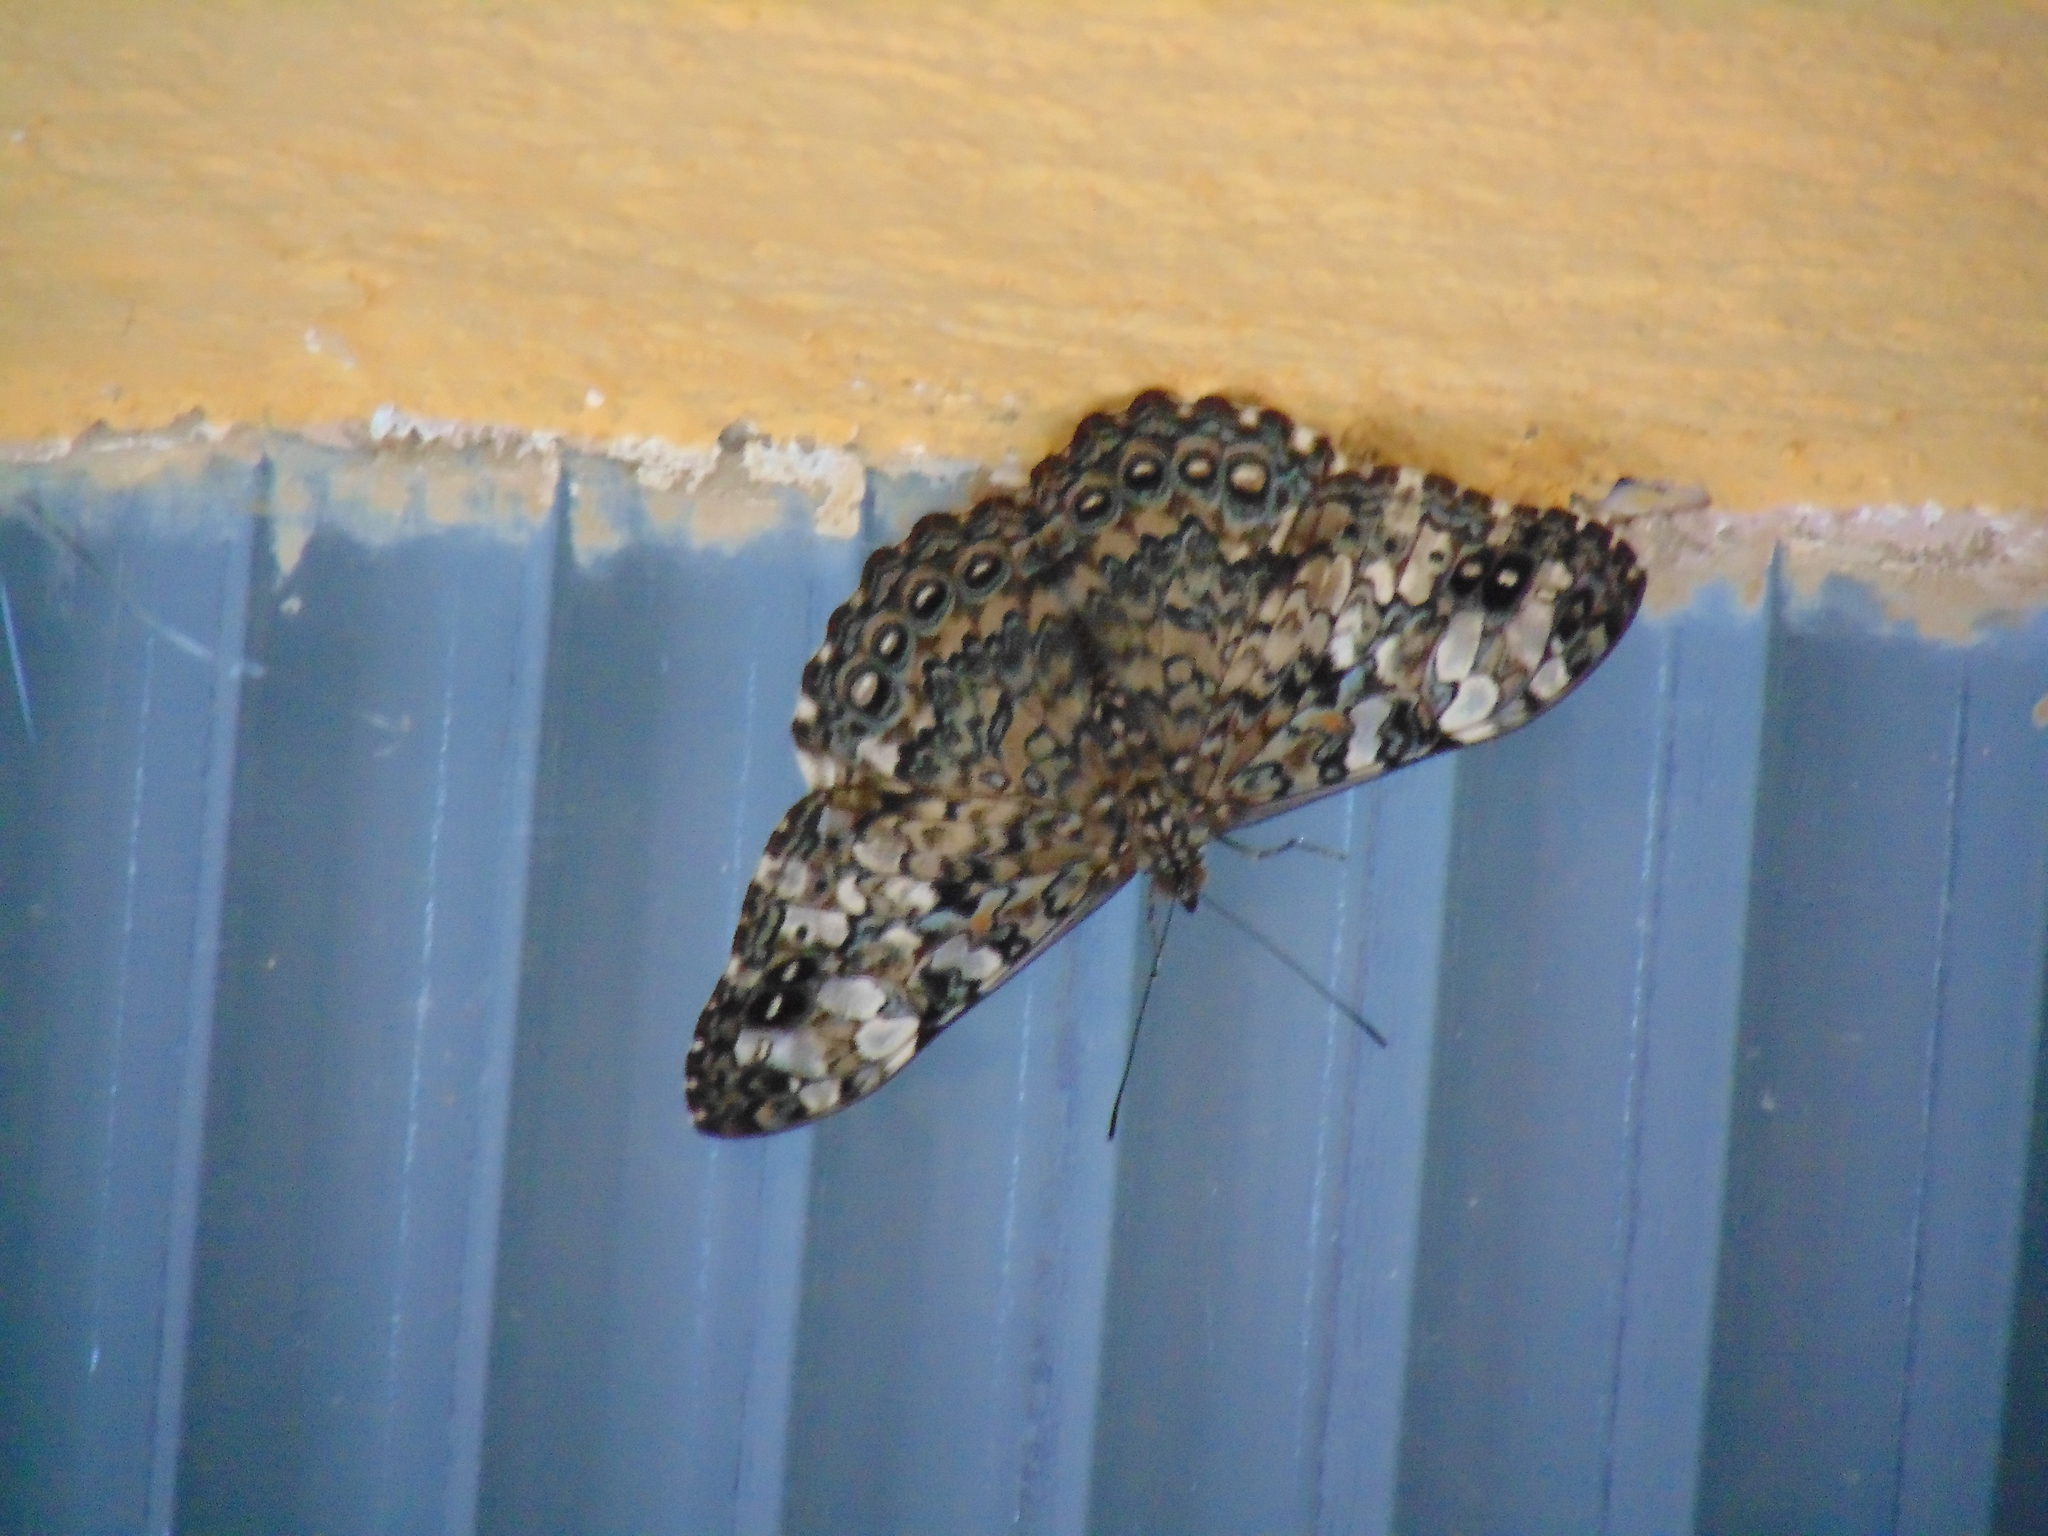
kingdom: Animalia
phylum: Arthropoda
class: Insecta
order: Lepidoptera
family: Nymphalidae
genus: Hamadryas
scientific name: Hamadryas epinome
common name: Epinome cracker
